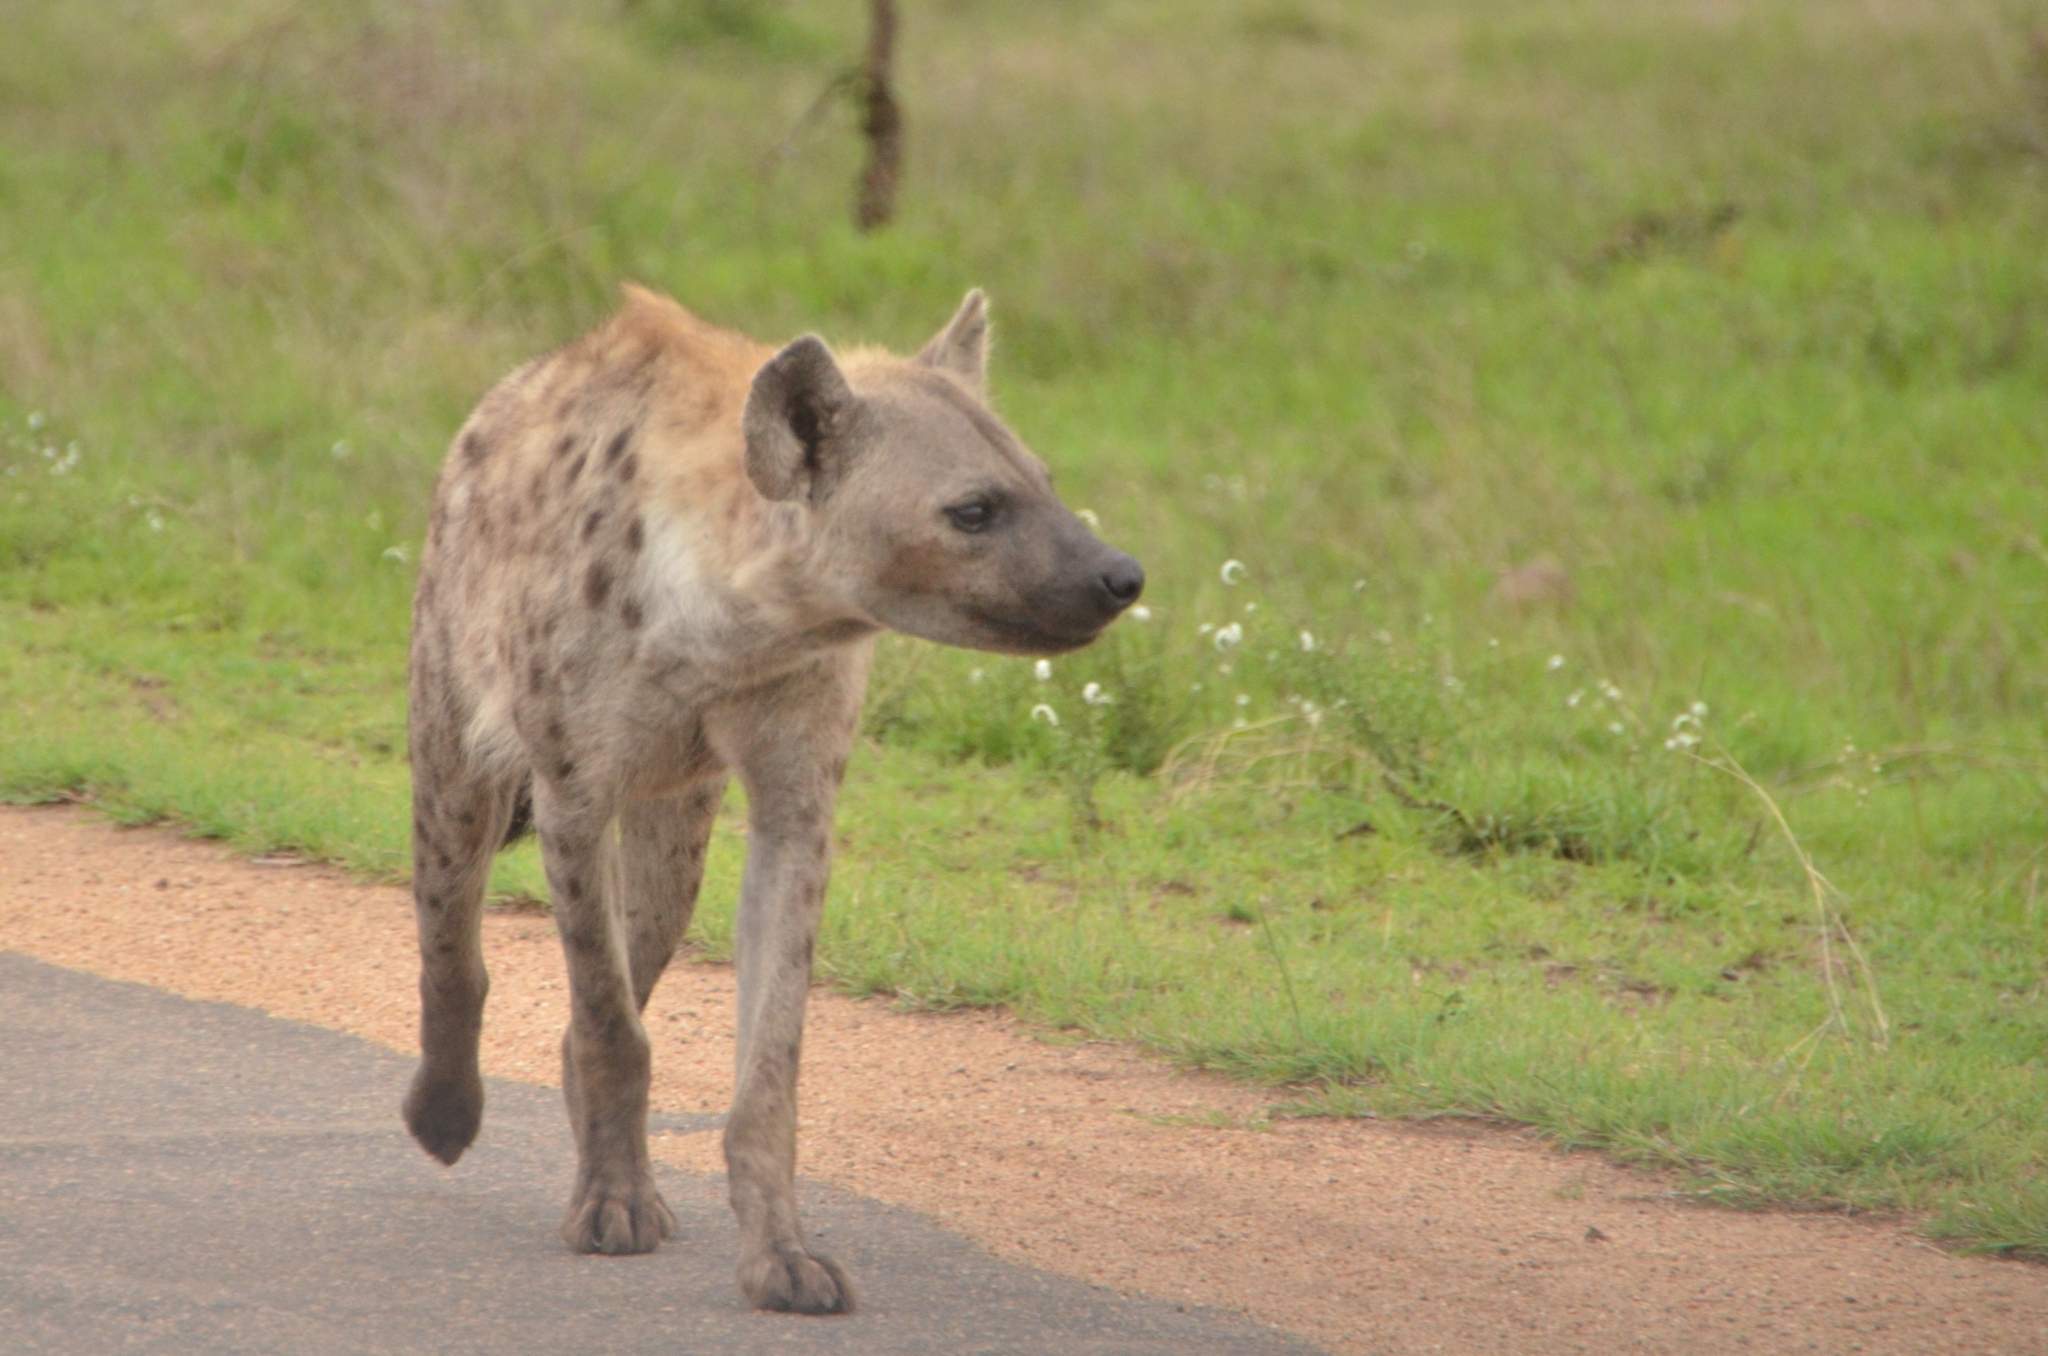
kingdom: Animalia
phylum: Chordata
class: Mammalia
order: Carnivora
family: Hyaenidae
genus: Crocuta
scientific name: Crocuta crocuta
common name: Spotted hyaena
